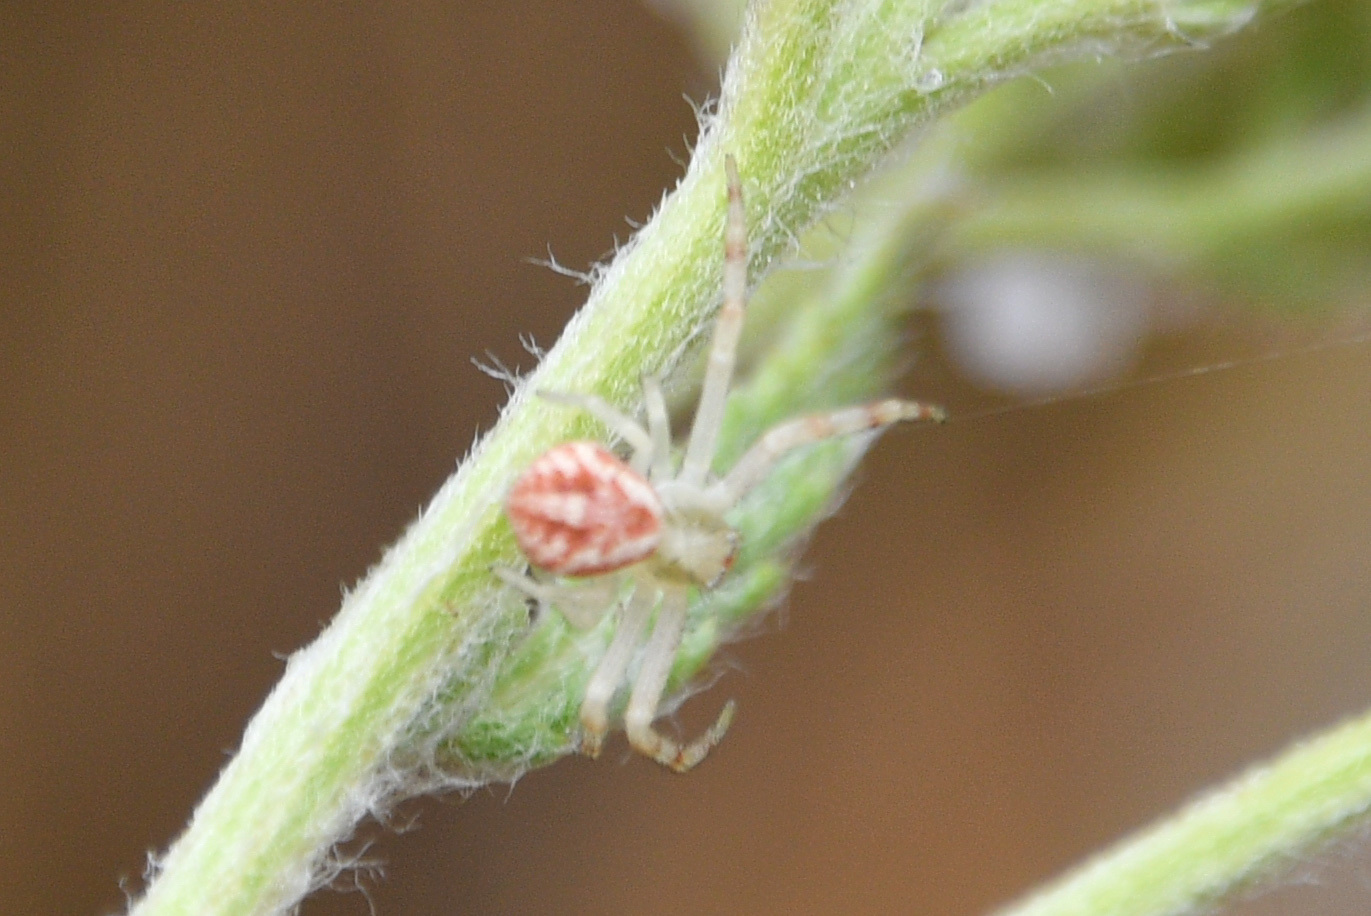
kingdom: Animalia
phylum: Arthropoda
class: Arachnida
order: Araneae
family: Thomisidae
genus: Misumena
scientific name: Misumena vatia
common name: Goldenrod crab spider
